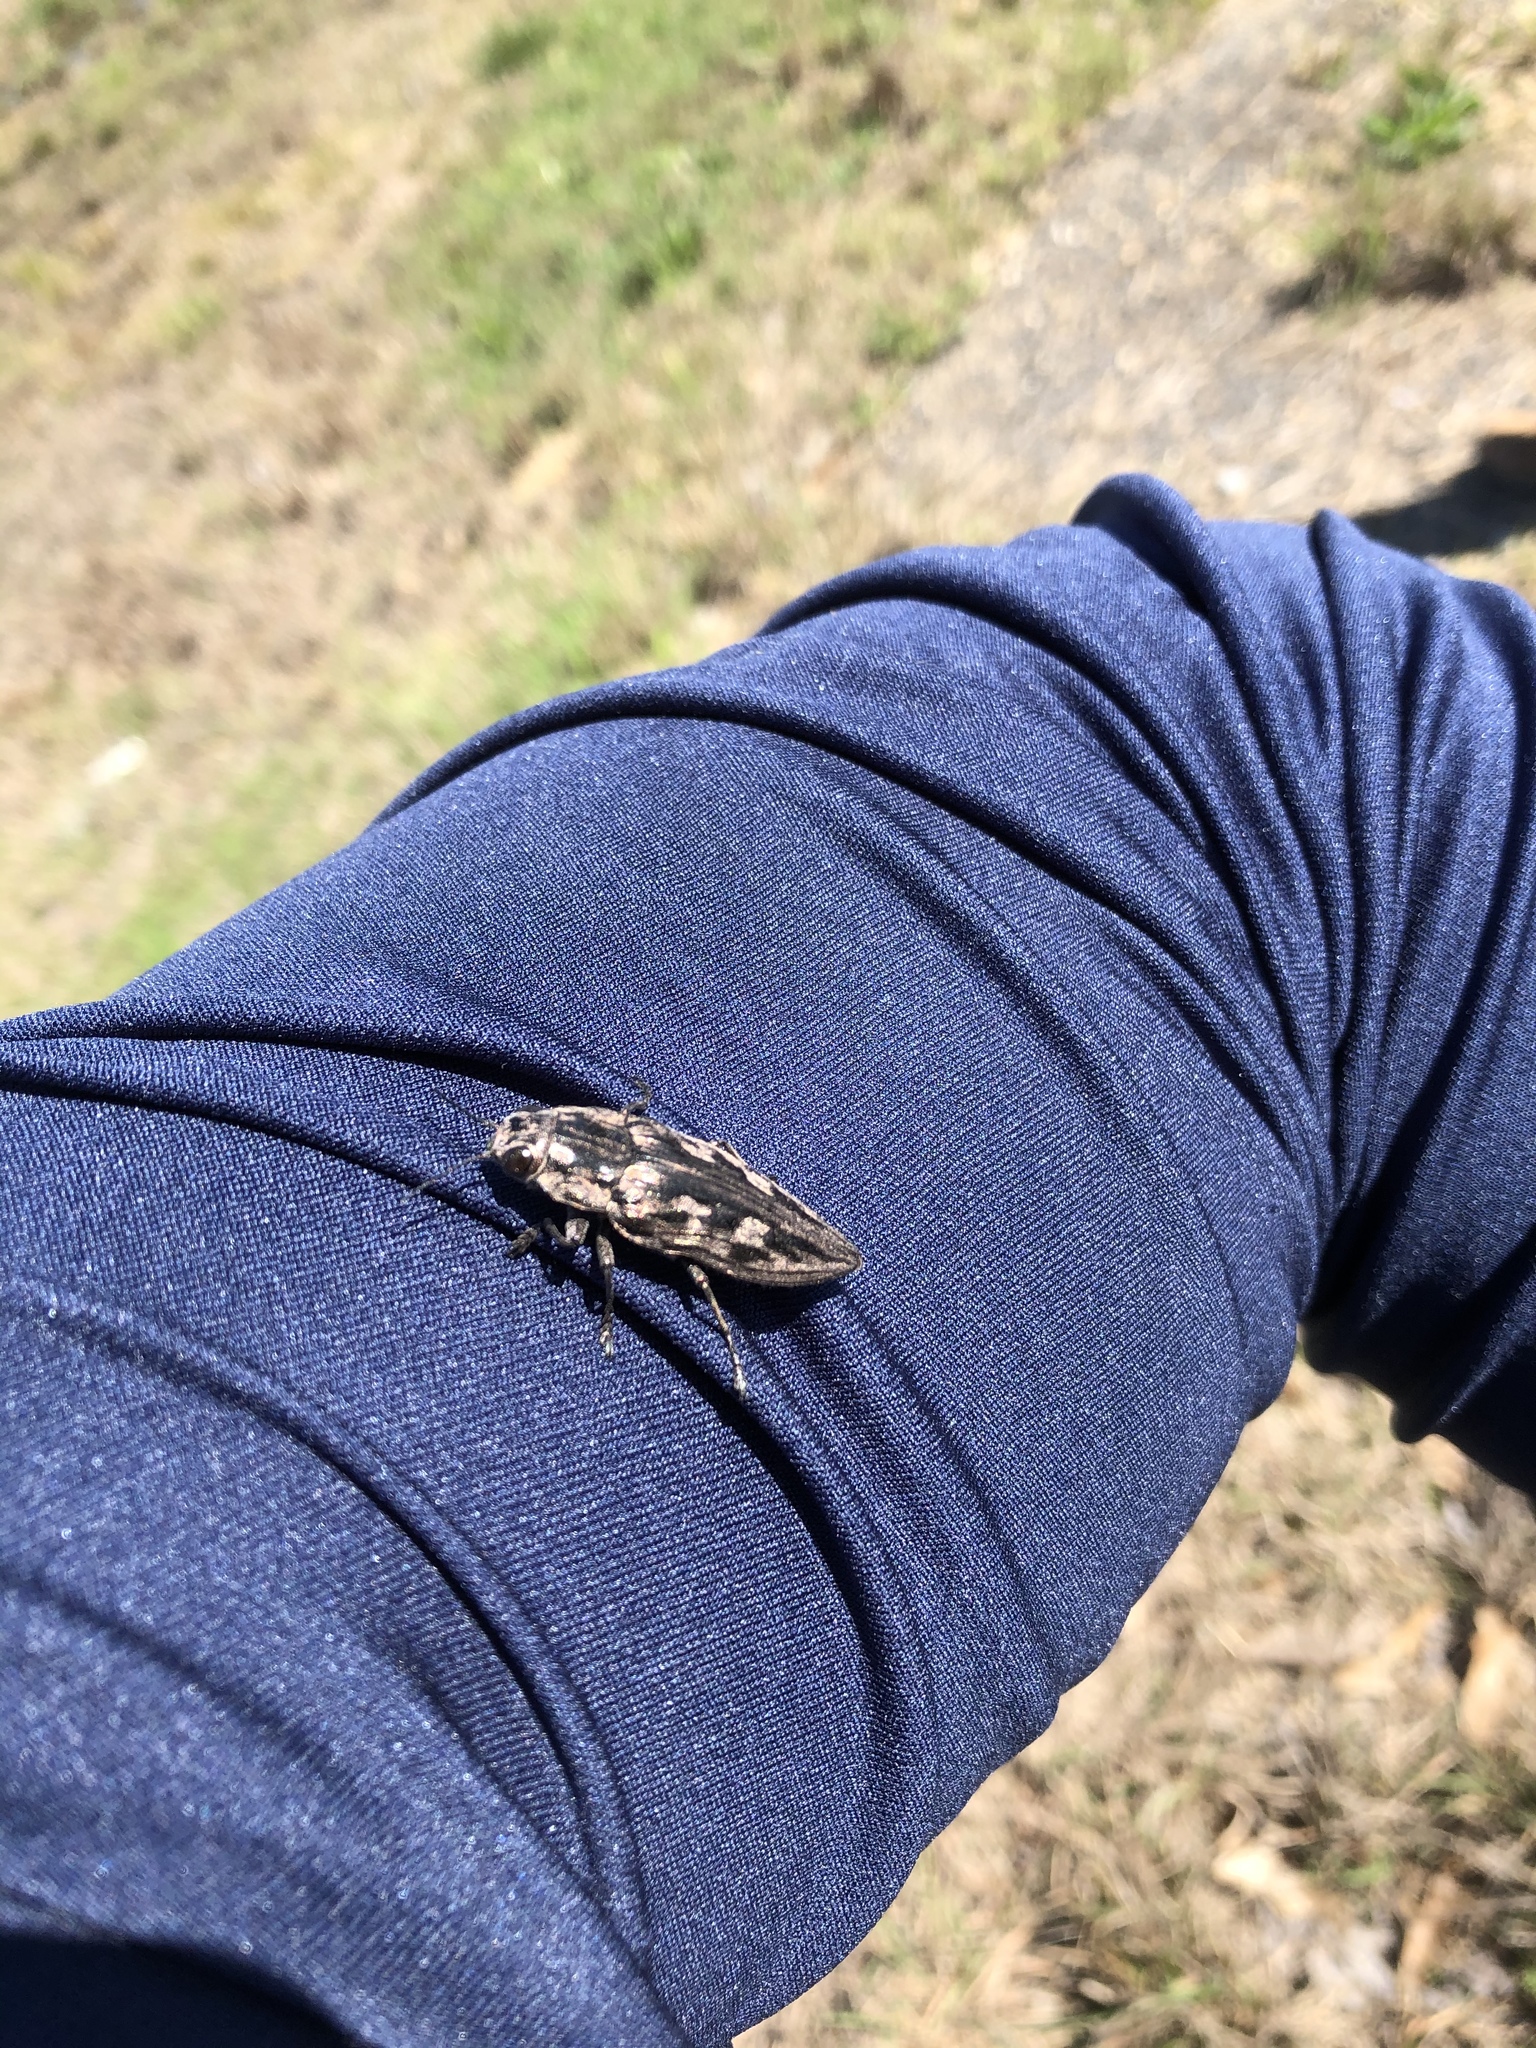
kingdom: Animalia
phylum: Arthropoda
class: Insecta
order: Coleoptera
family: Buprestidae
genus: Chalcophora
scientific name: Chalcophora virginiensis
